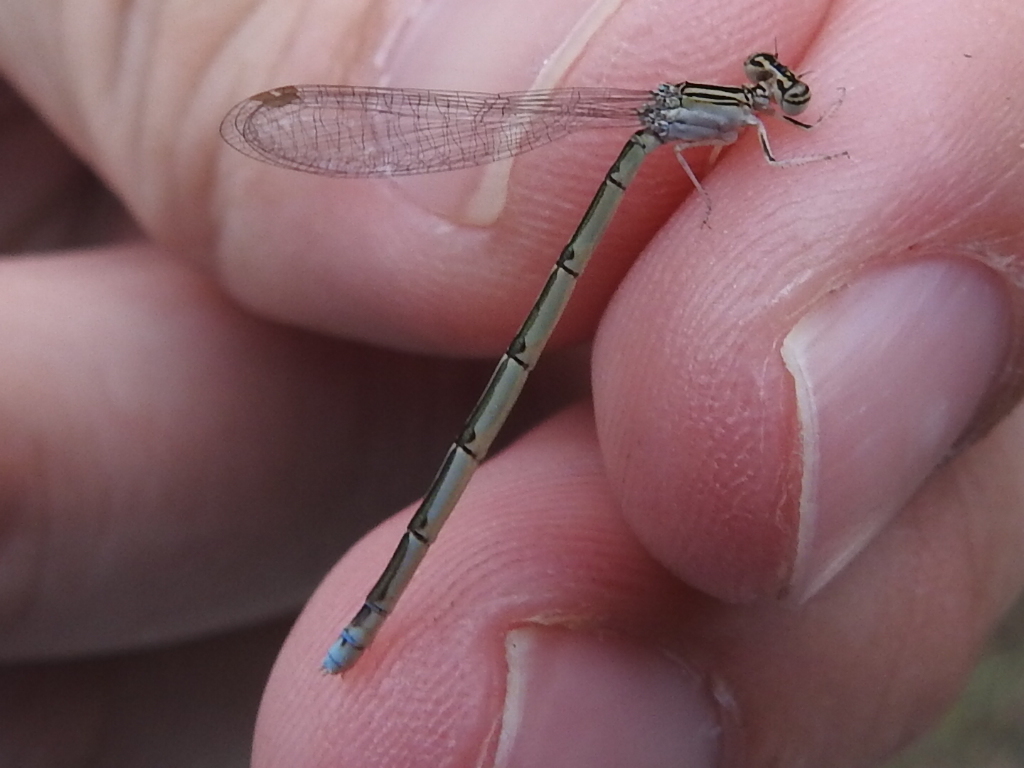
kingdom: Animalia
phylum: Arthropoda
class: Insecta
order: Odonata
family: Coenagrionidae
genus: Enallagma
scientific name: Enallagma basidens
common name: Double-striped bluet
